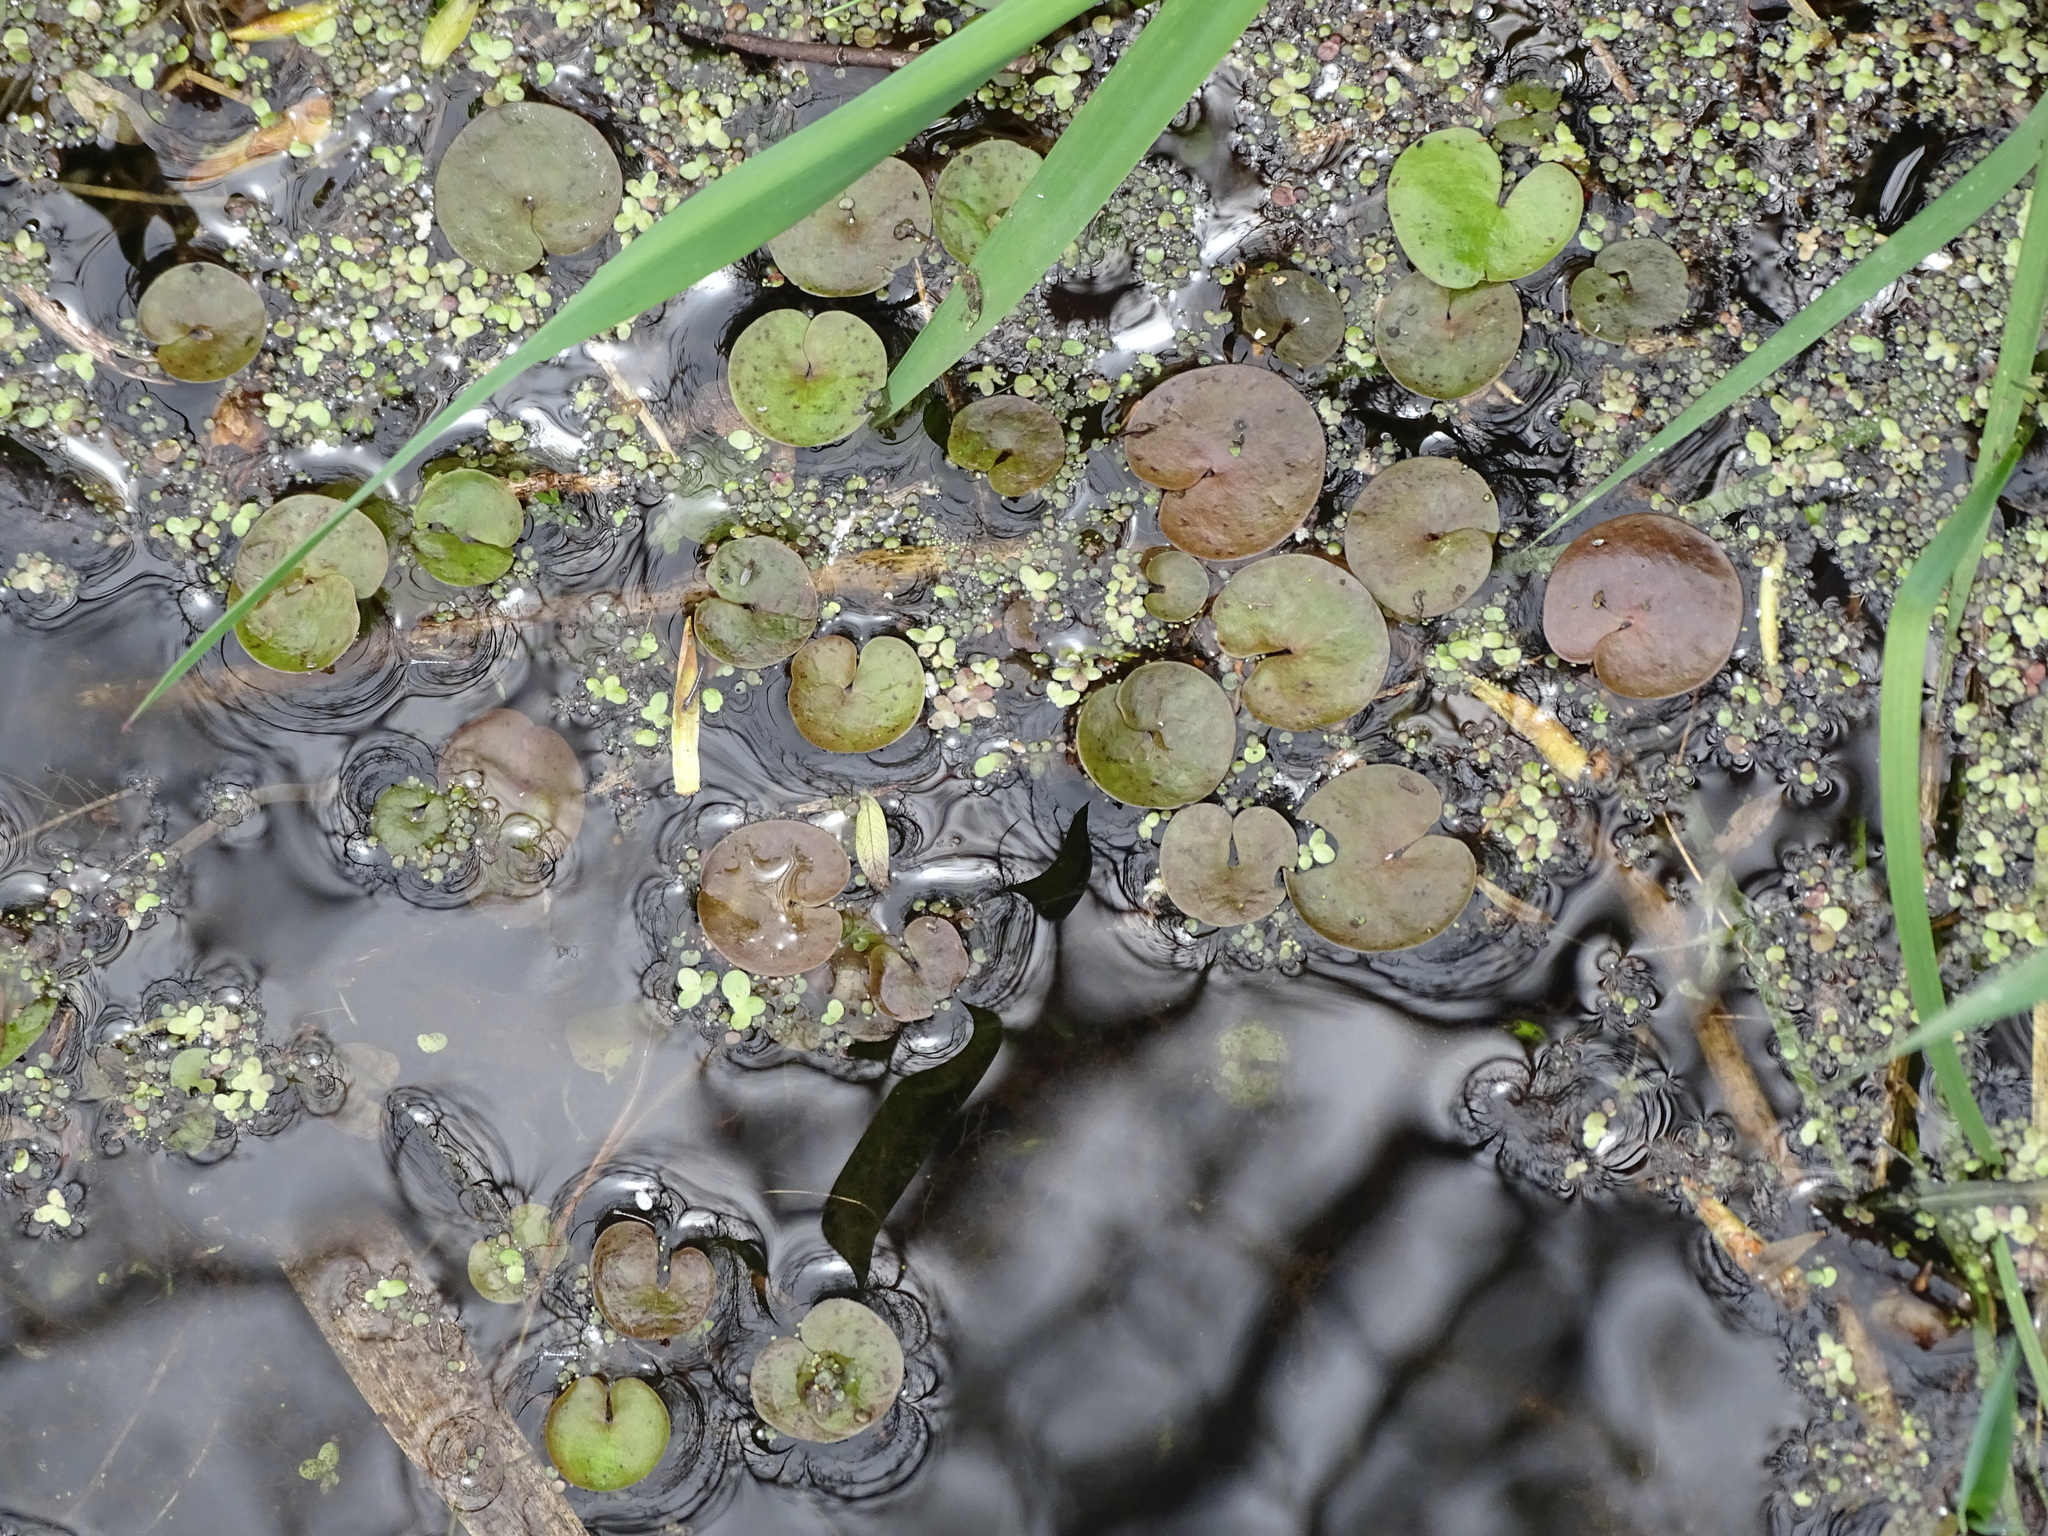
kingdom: Plantae
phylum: Tracheophyta
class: Liliopsida
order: Alismatales
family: Hydrocharitaceae
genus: Hydrocharis
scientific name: Hydrocharis morsus-ranae
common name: Frogbit
